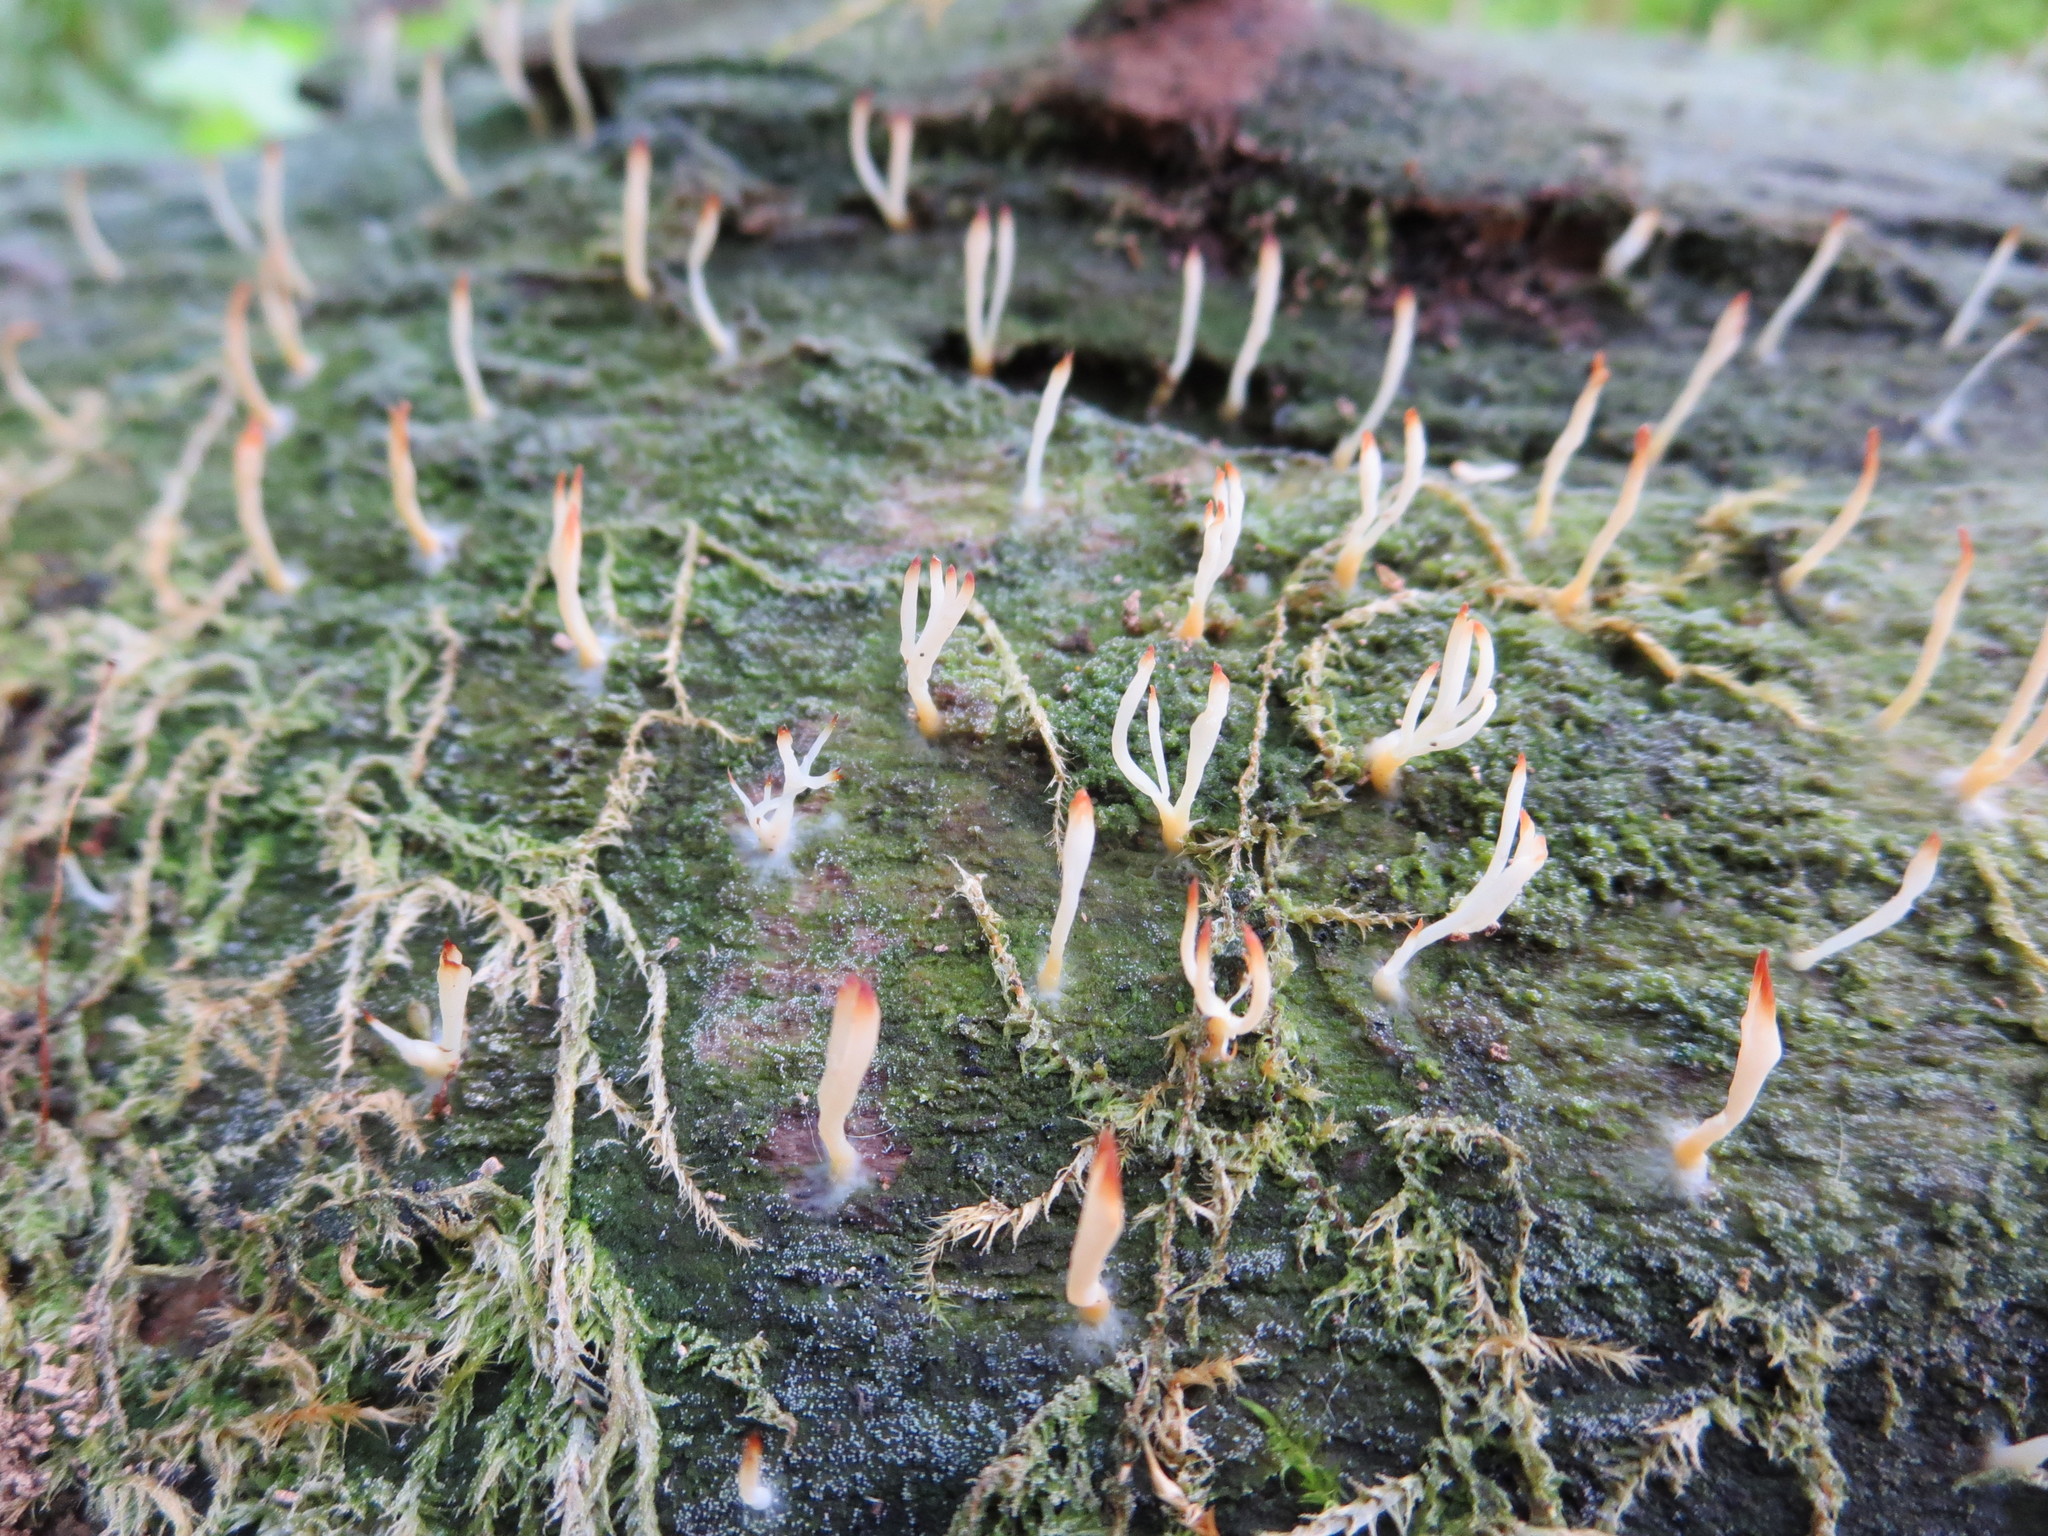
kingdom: Fungi
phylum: Basidiomycota
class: Agaricomycetes
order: Cantharellales
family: Hydnaceae
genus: Multiclavula
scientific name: Multiclavula mucida
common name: White green-algae coral
